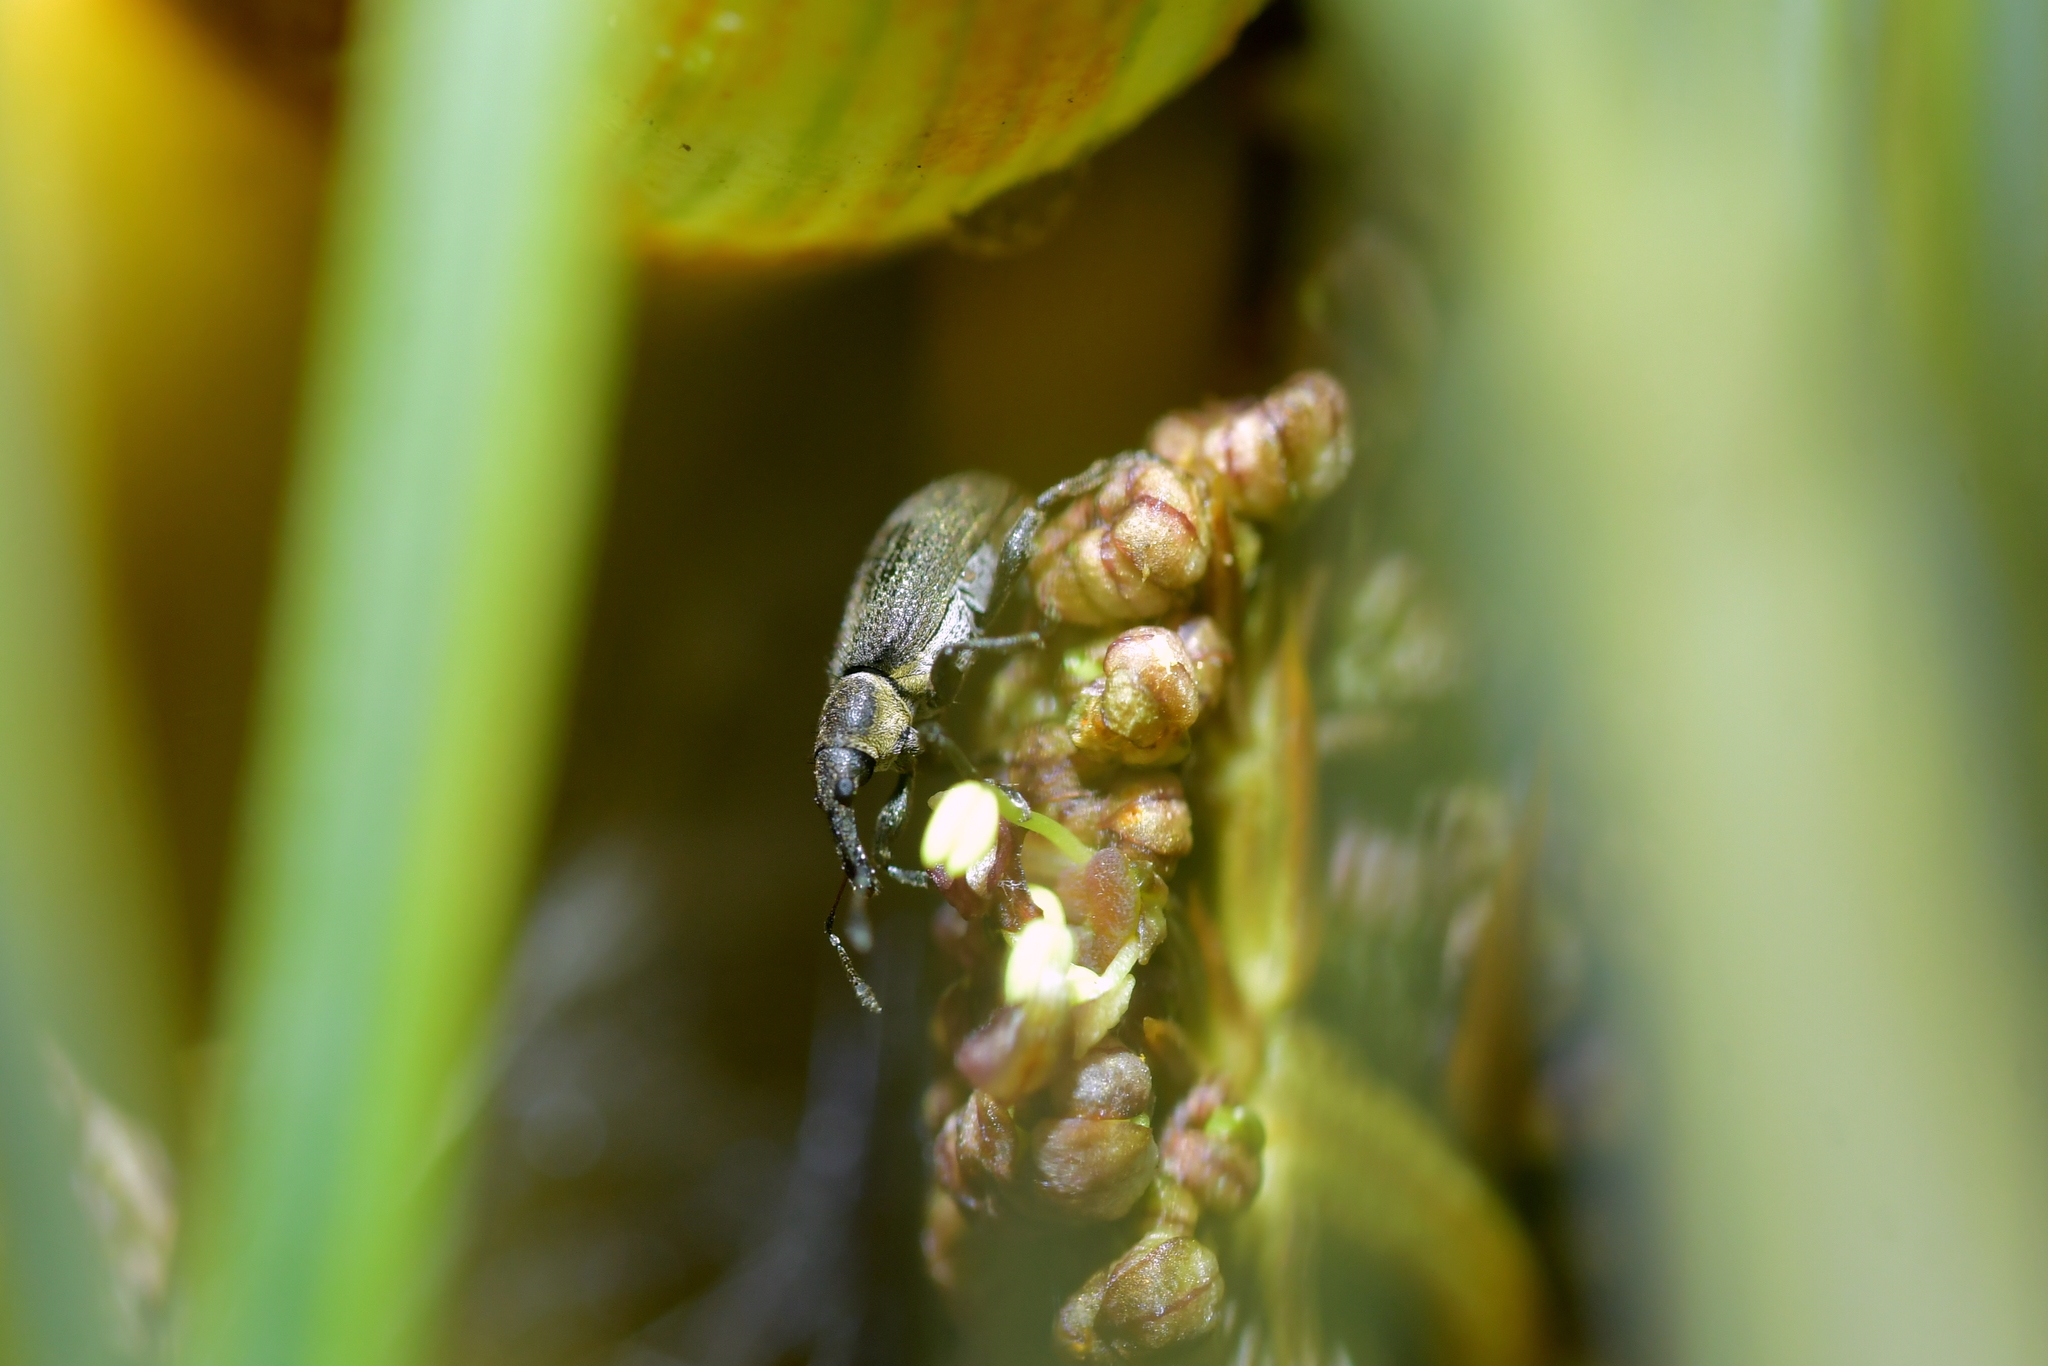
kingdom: Animalia
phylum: Arthropoda
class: Insecta
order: Coleoptera
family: Curculionidae
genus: Eugnomus
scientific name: Eugnomus
